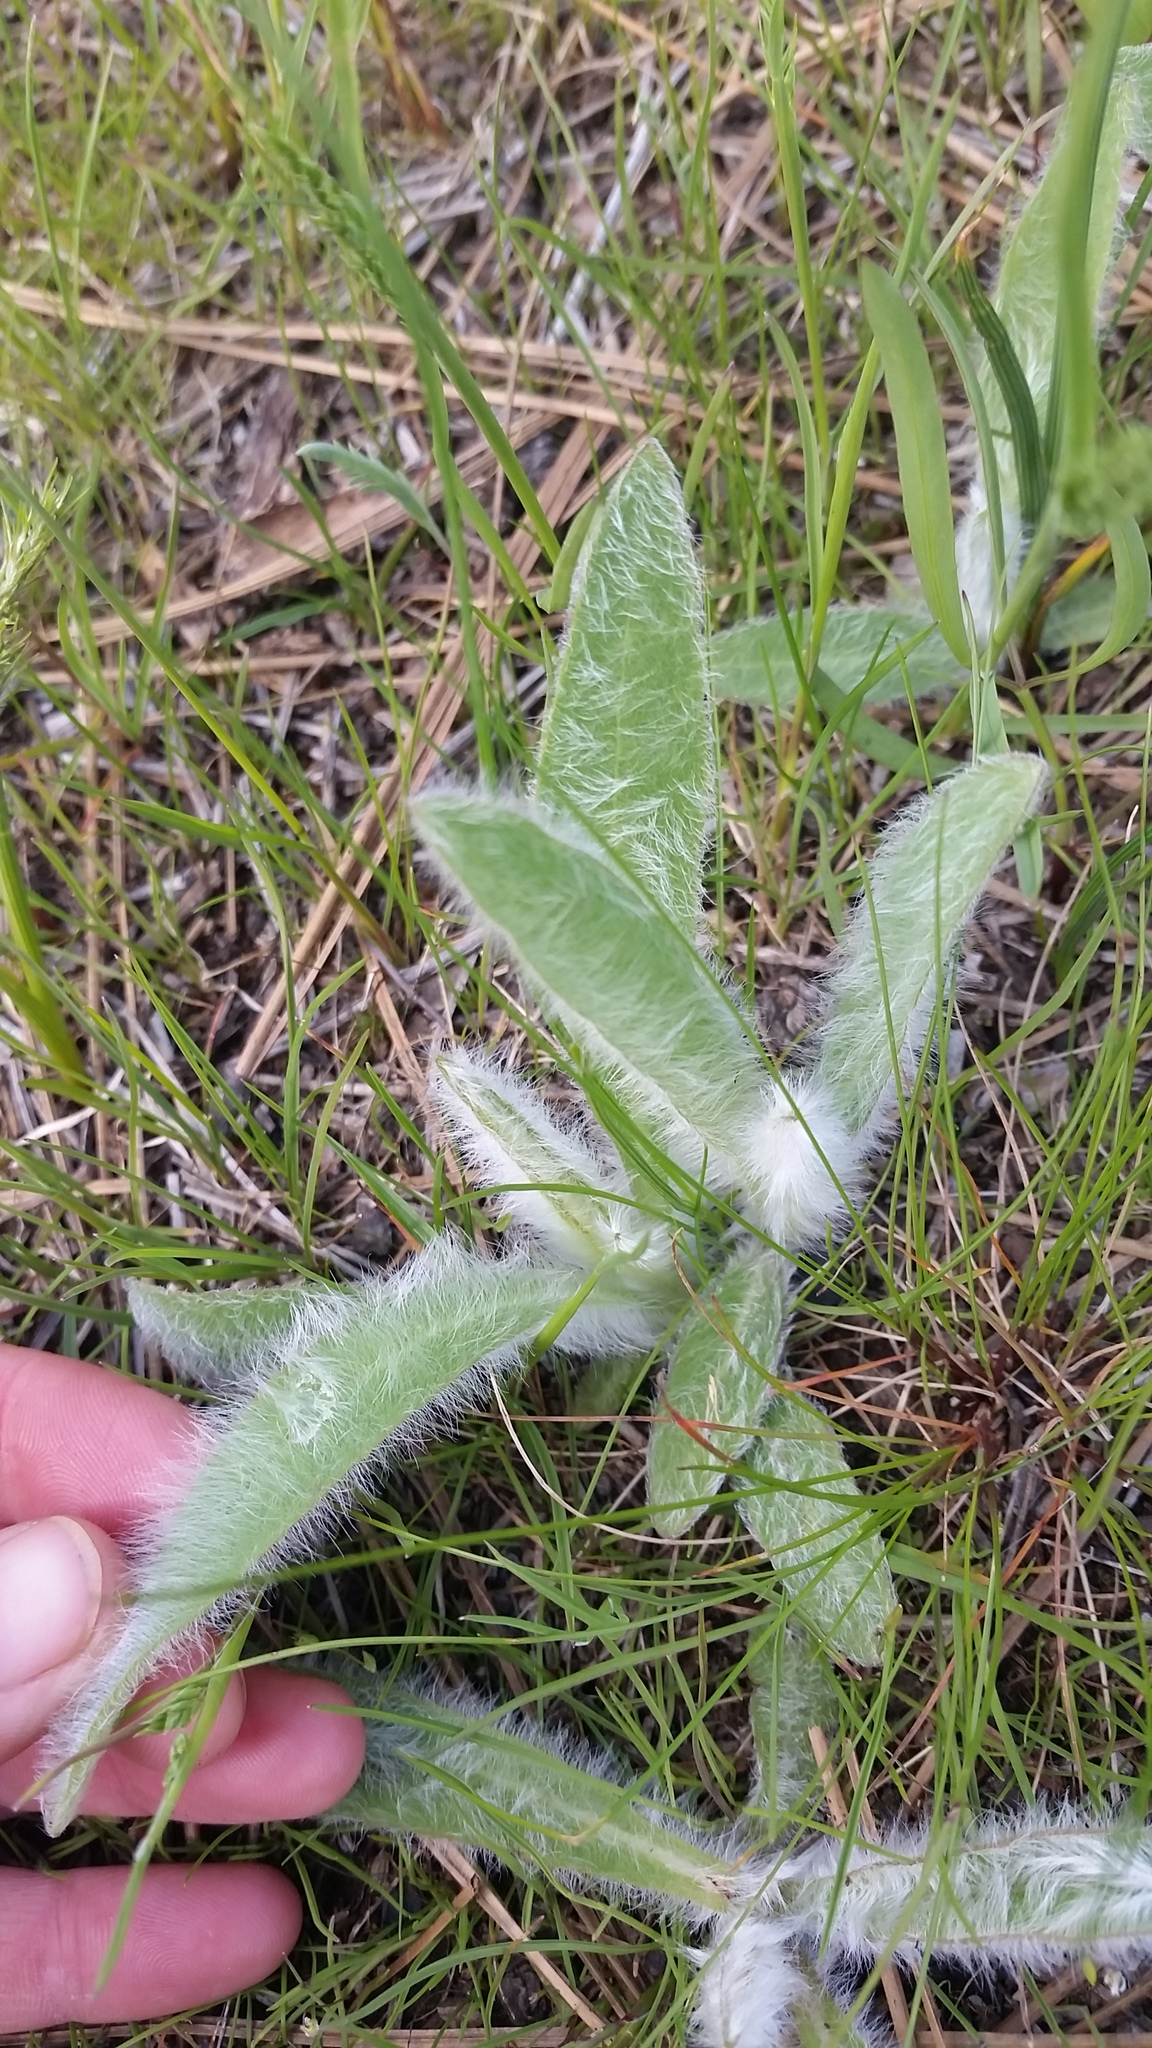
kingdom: Plantae
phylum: Tracheophyta
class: Magnoliopsida
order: Asterales
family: Asteraceae
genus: Hieracium
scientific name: Hieracium scouleri
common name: Hound's-tongue hawkweed
